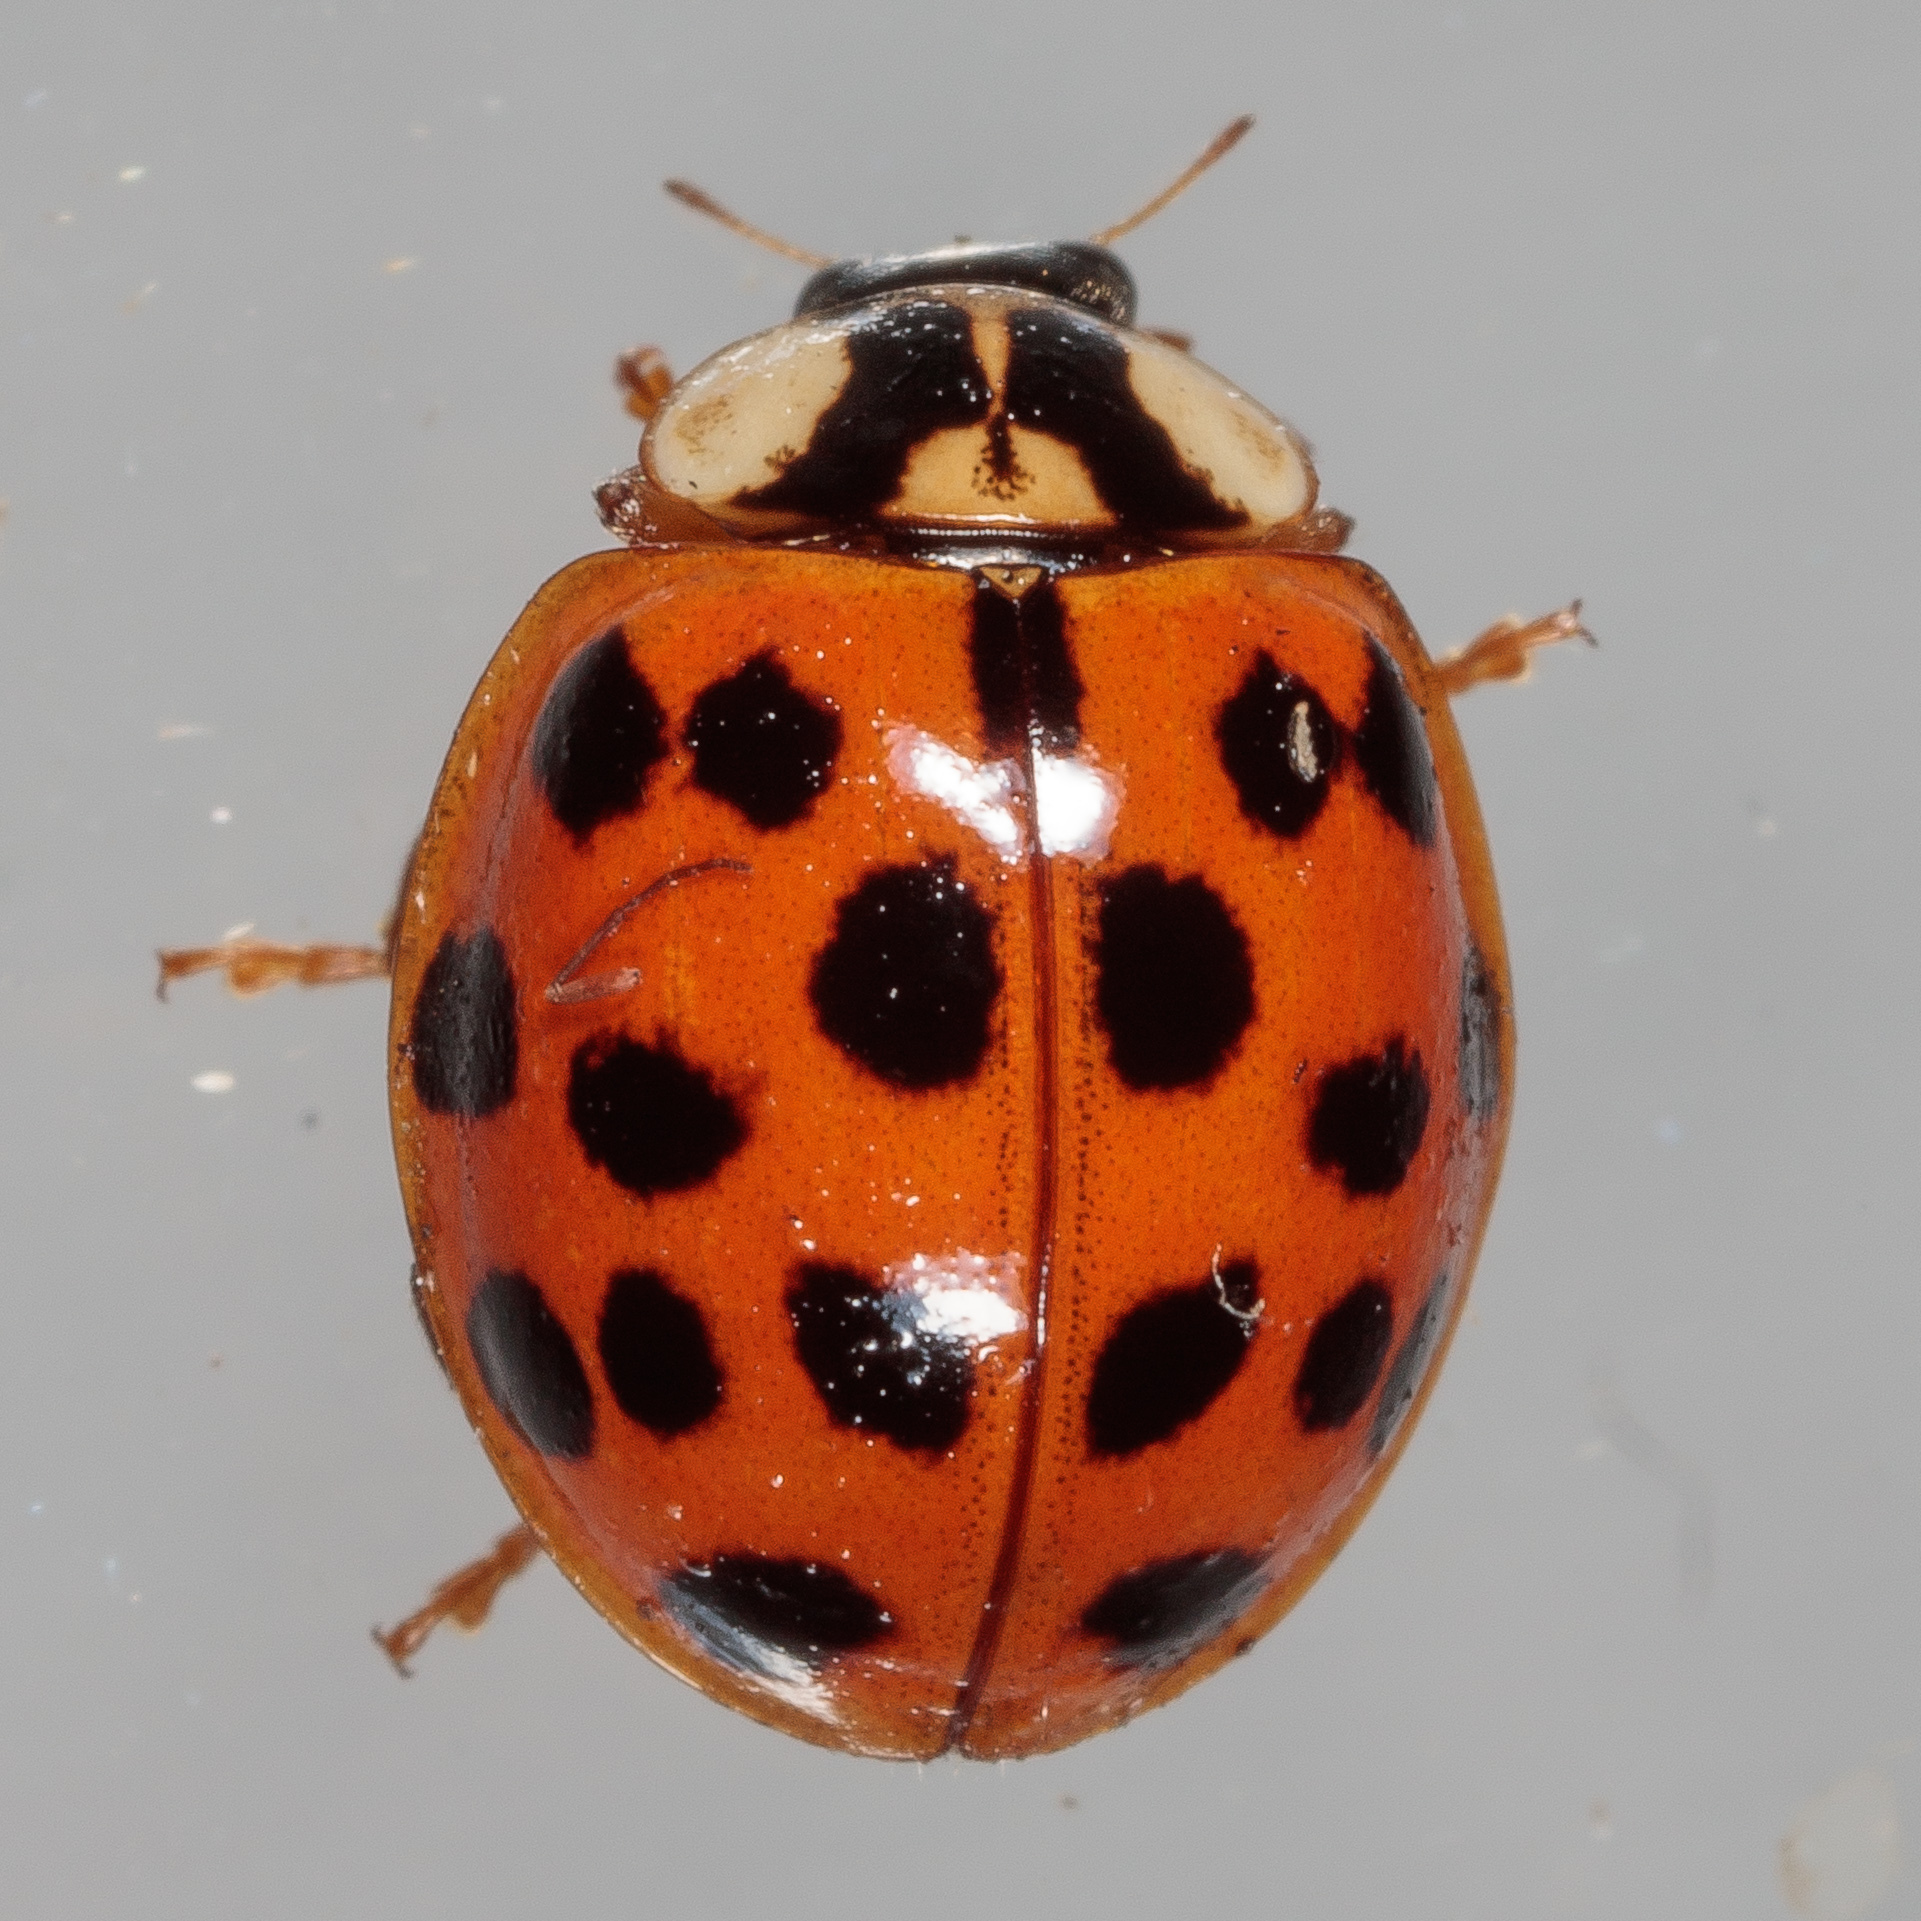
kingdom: Animalia
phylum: Arthropoda
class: Insecta
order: Coleoptera
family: Coccinellidae
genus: Harmonia
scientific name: Harmonia axyridis
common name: Harlequin ladybird
